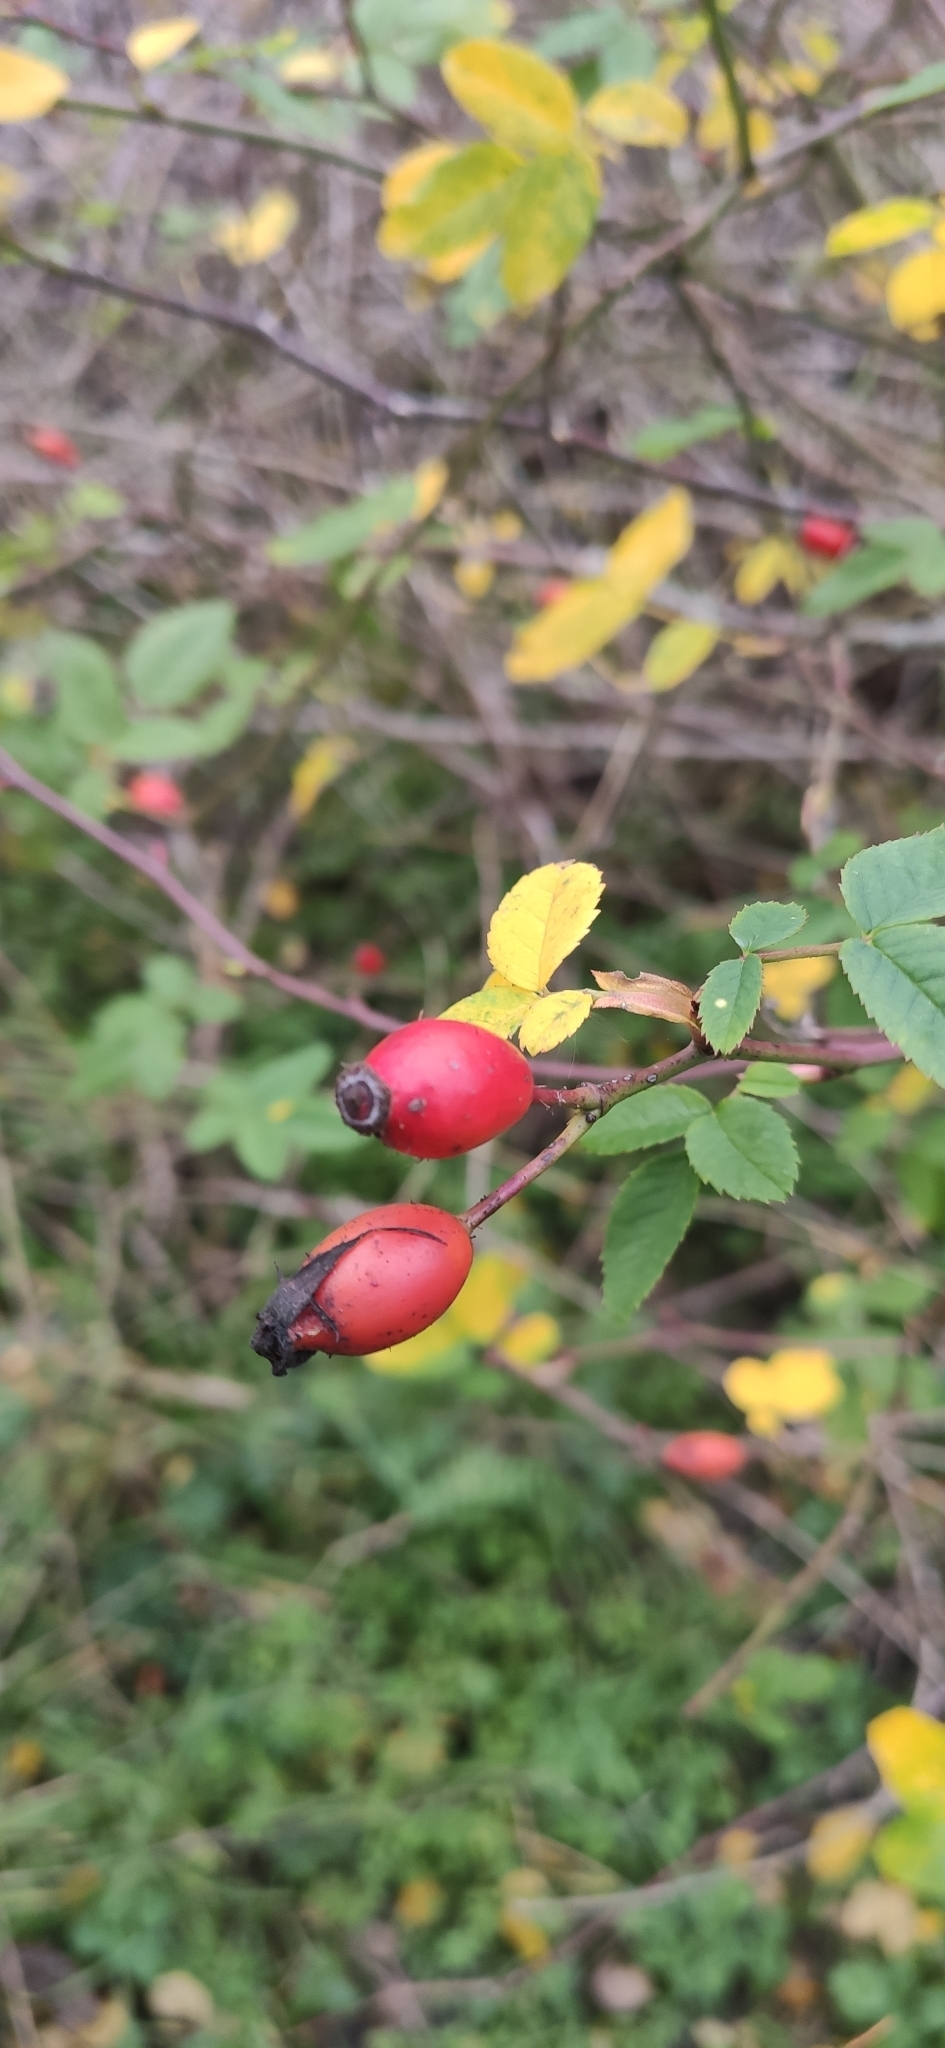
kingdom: Plantae
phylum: Tracheophyta
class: Magnoliopsida
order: Rosales
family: Rosaceae
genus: Rosa
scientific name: Rosa canina
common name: Dog rose
